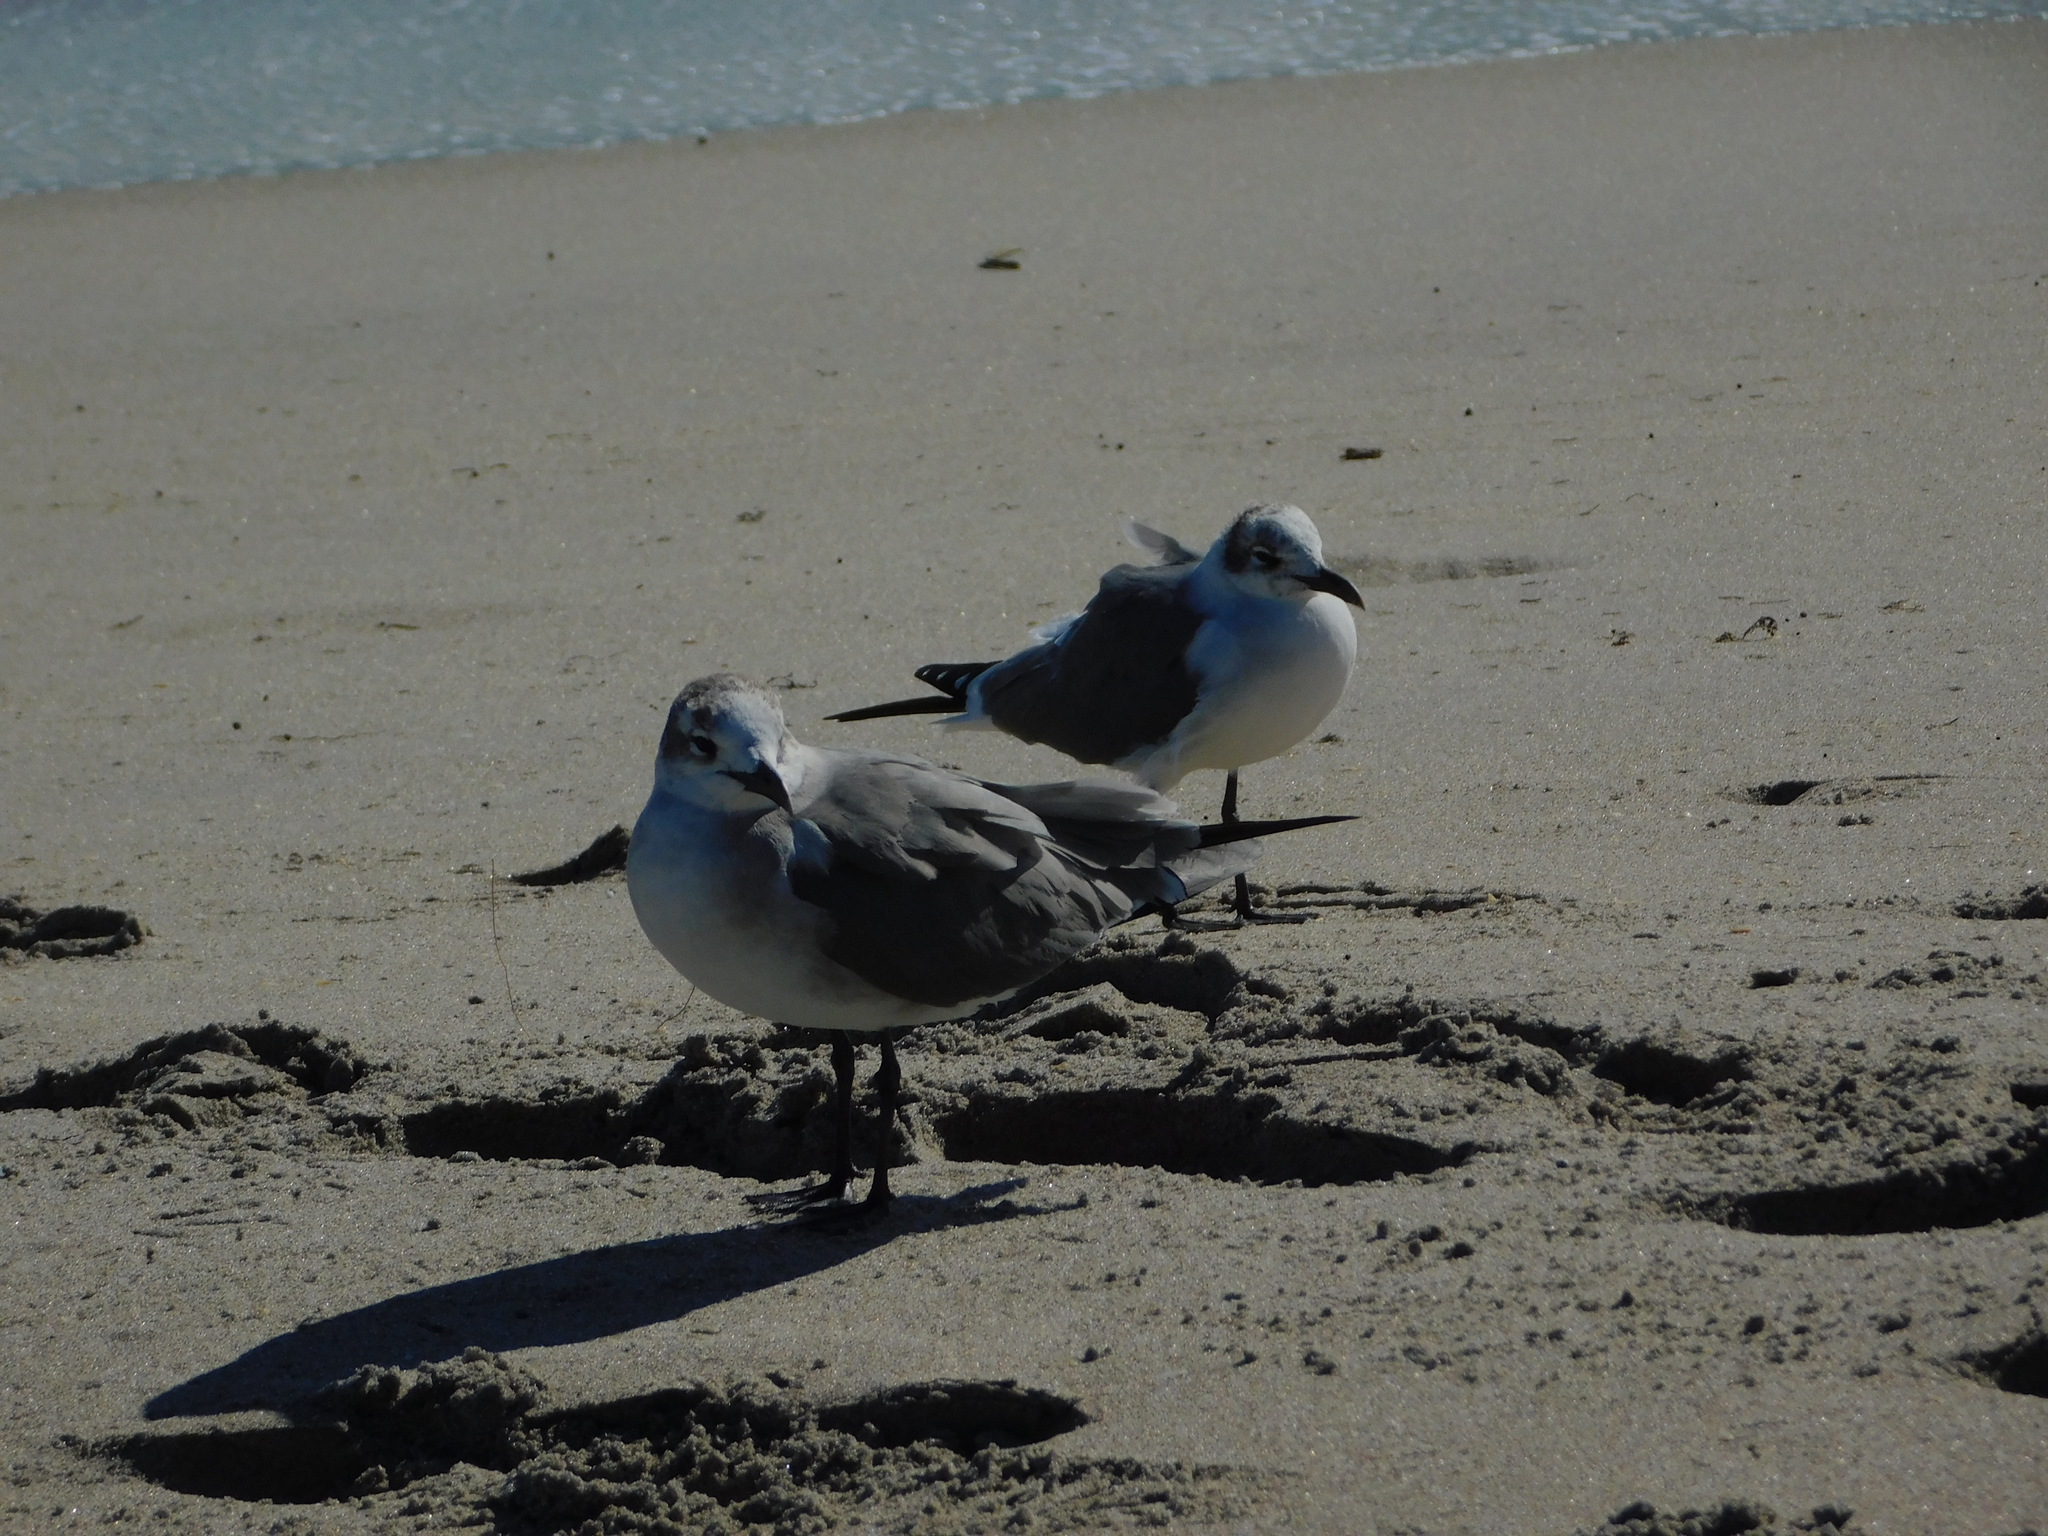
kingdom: Animalia
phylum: Chordata
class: Aves
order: Charadriiformes
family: Laridae
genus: Leucophaeus
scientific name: Leucophaeus atricilla
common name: Laughing gull
